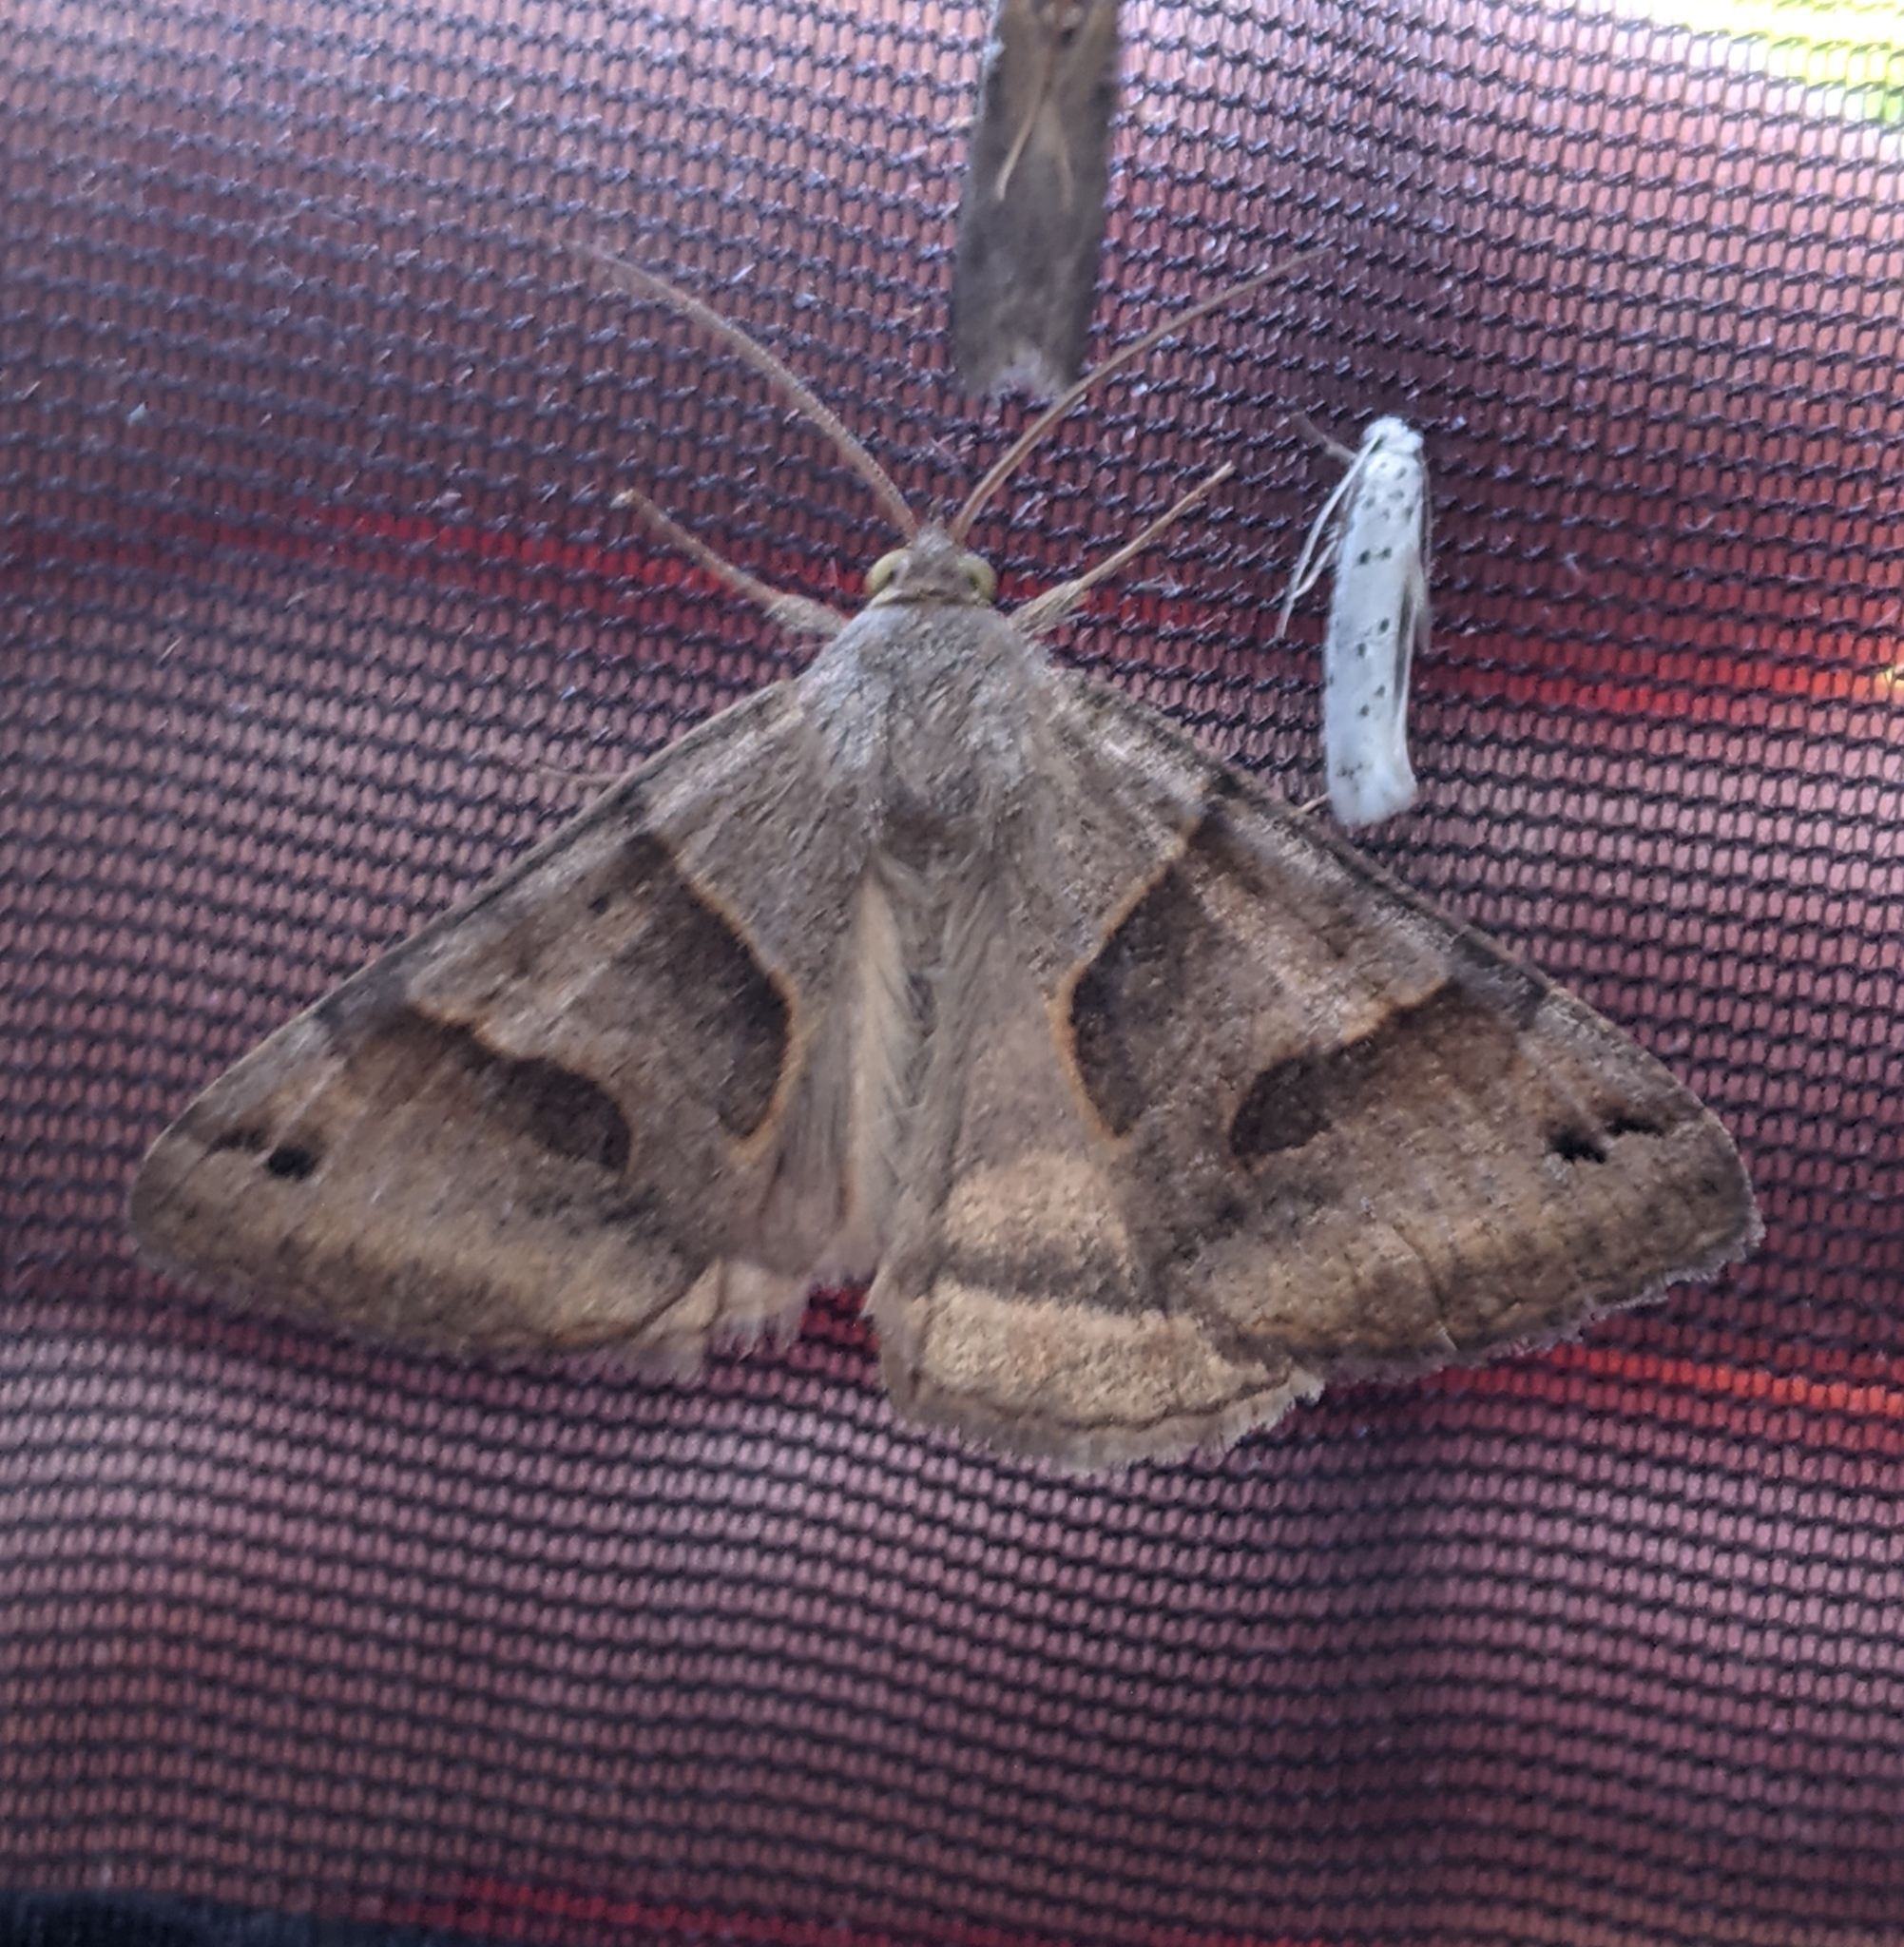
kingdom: Animalia
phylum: Arthropoda
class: Insecta
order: Lepidoptera
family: Erebidae
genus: Caenurgina
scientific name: Caenurgina erechtea
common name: Forage looper moth
